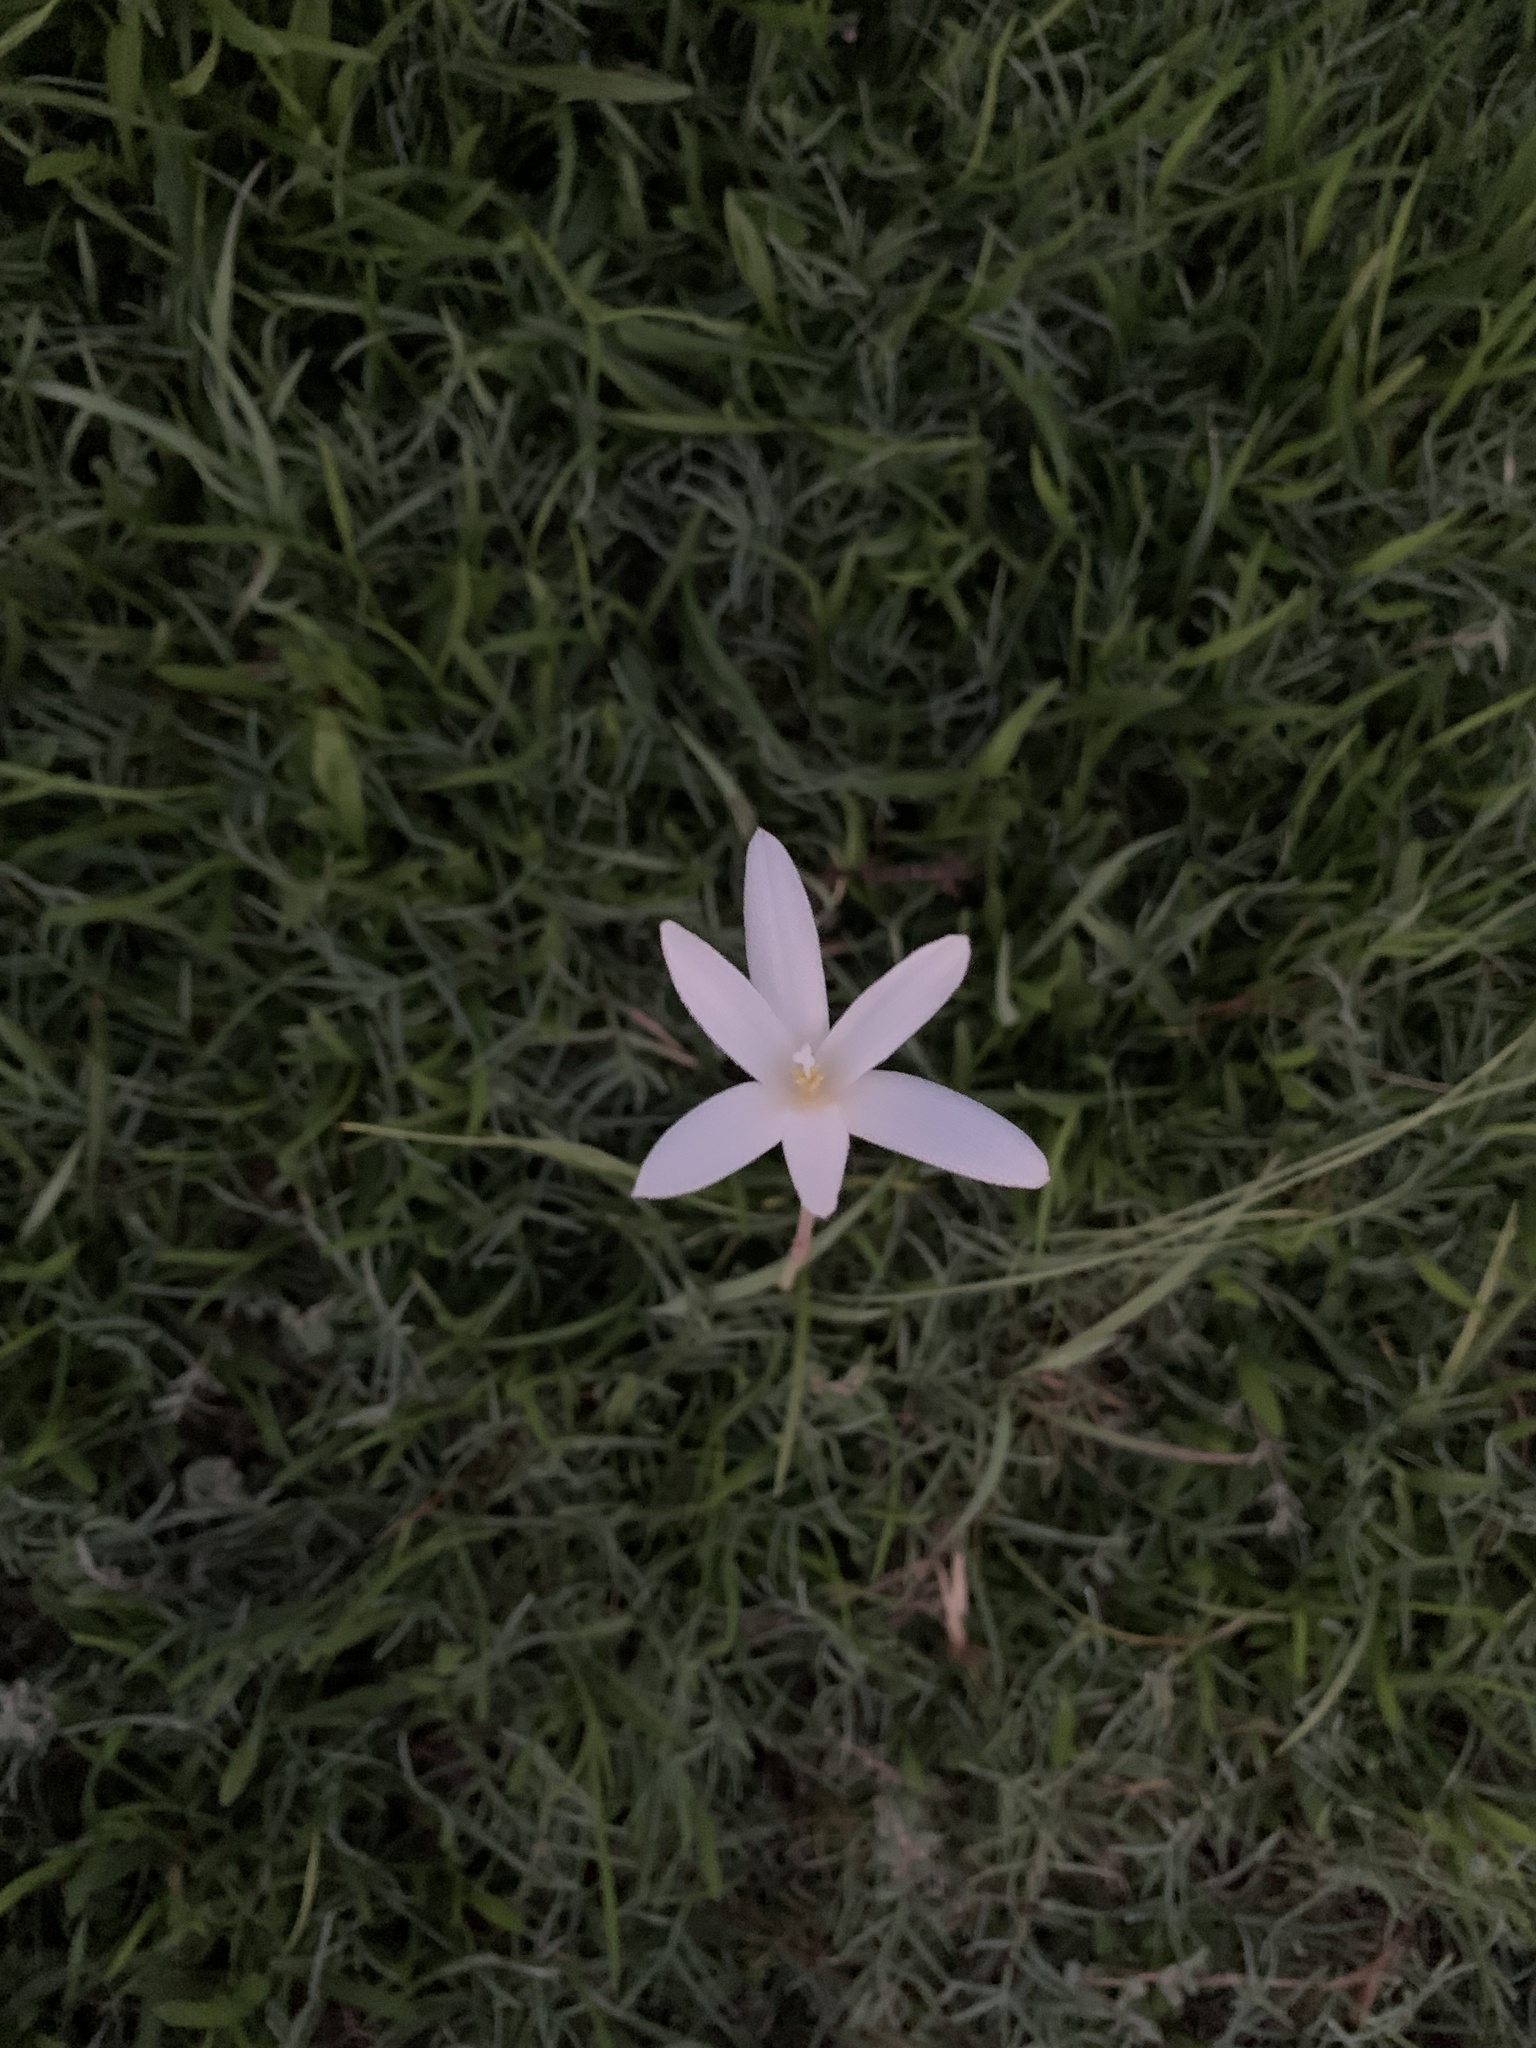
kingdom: Plantae
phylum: Tracheophyta
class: Liliopsida
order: Asparagales
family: Amaryllidaceae
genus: Zephyranthes
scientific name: Zephyranthes traubii
